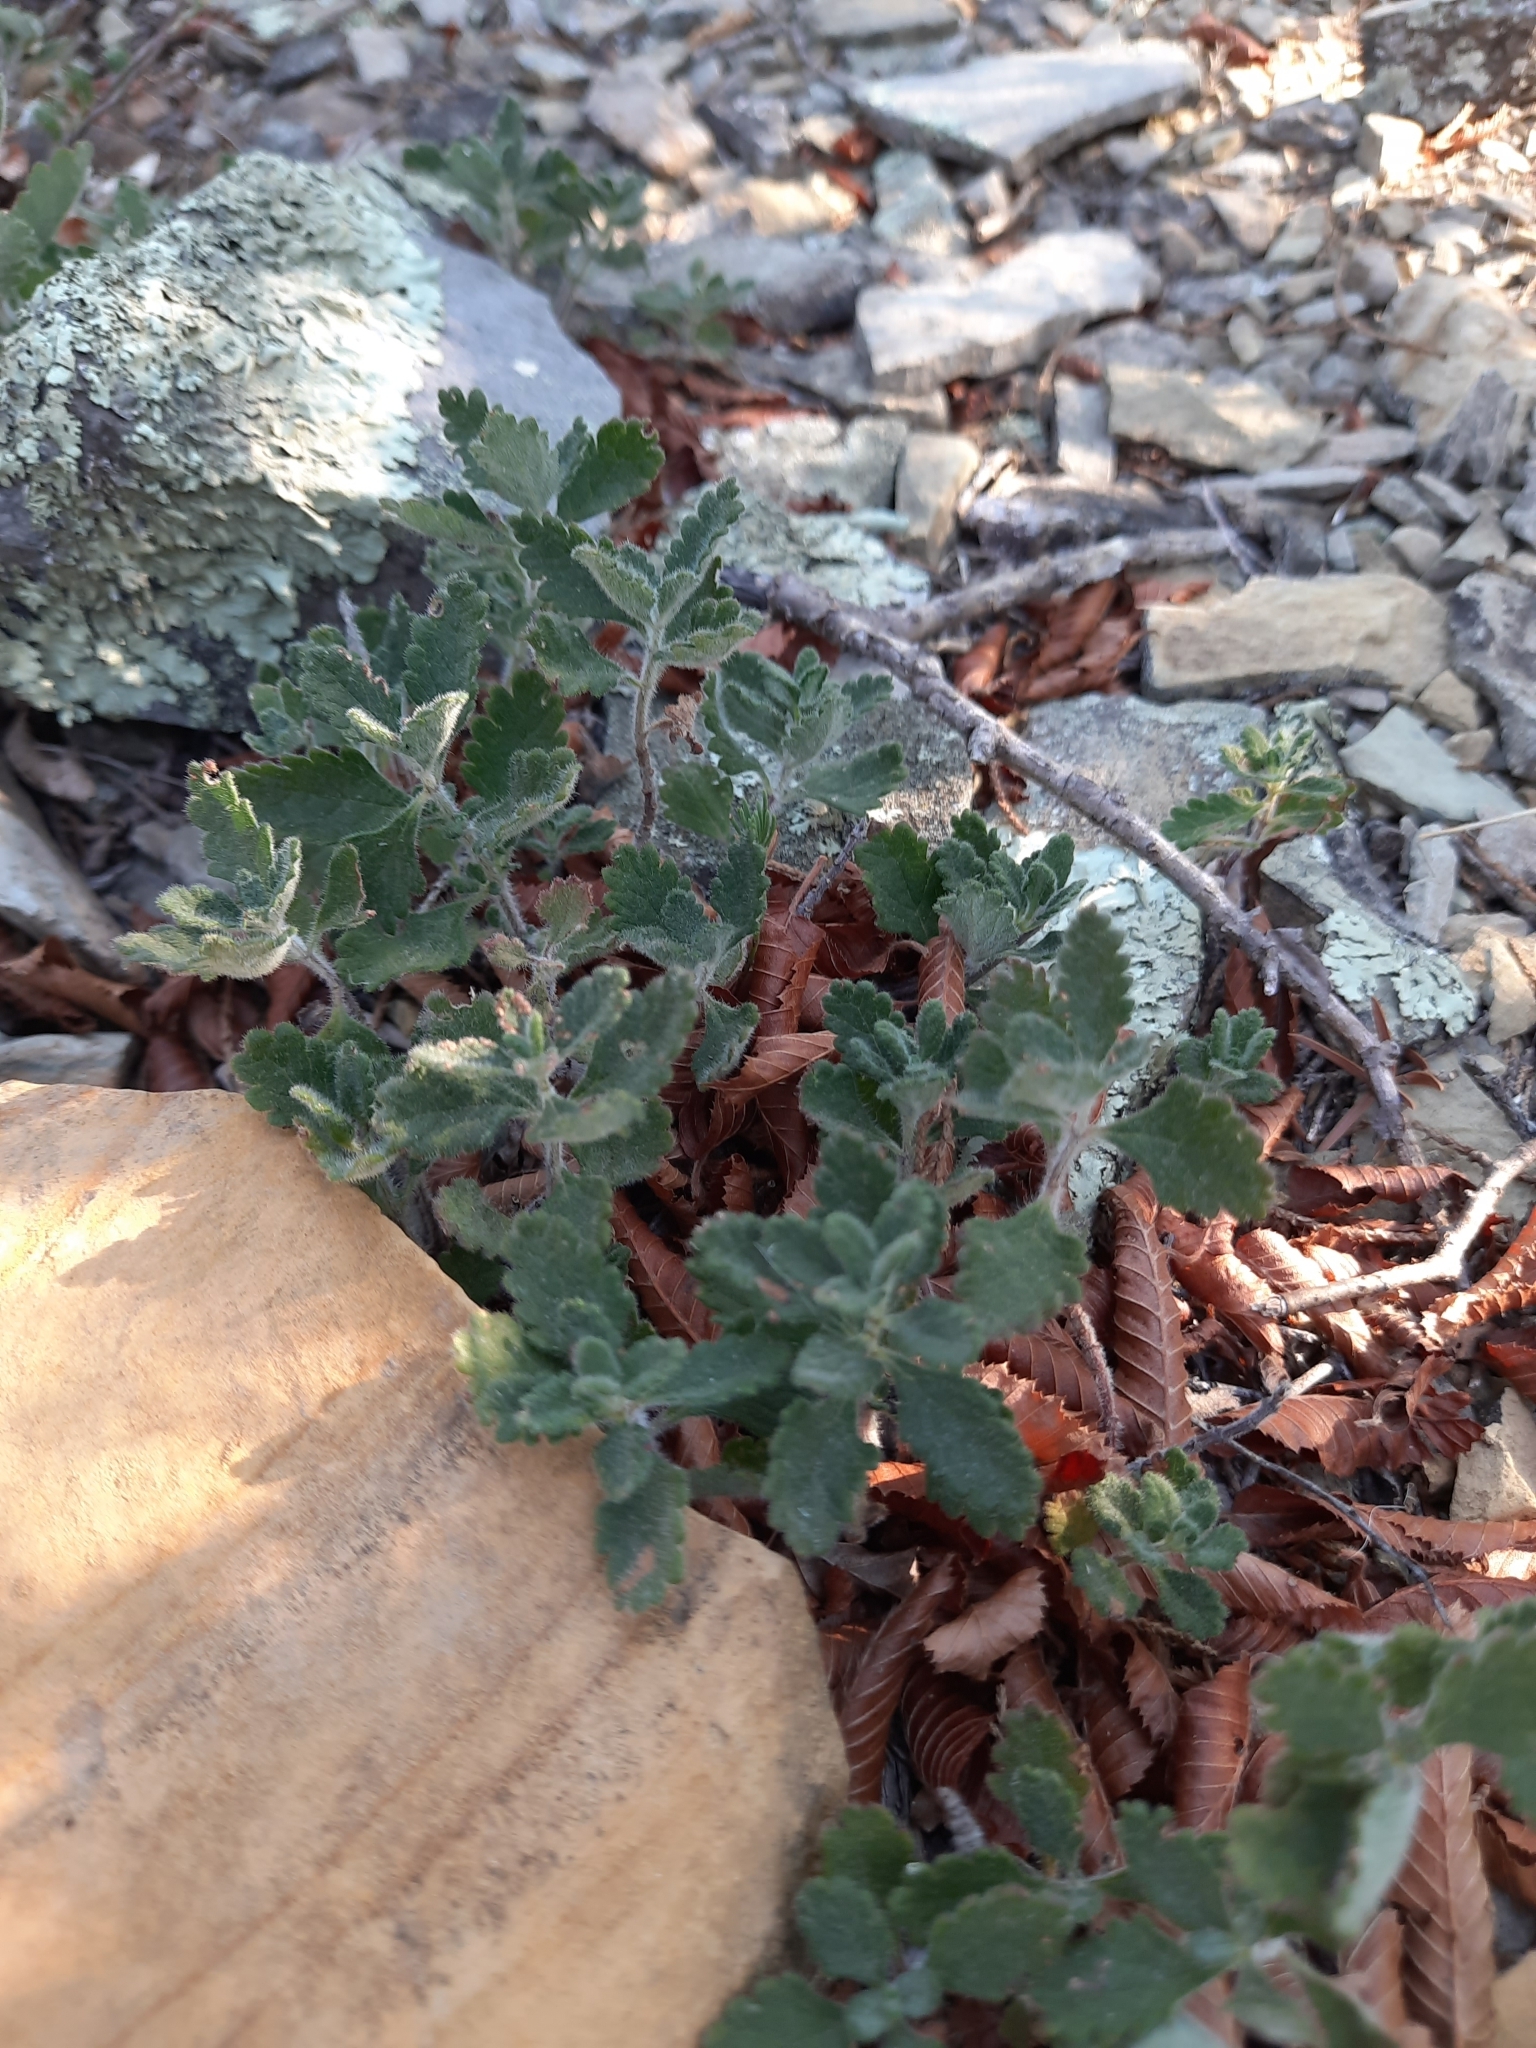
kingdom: Plantae
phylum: Tracheophyta
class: Magnoliopsida
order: Lamiales
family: Lamiaceae
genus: Teucrium
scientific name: Teucrium chamaedrys
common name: Wall germander
